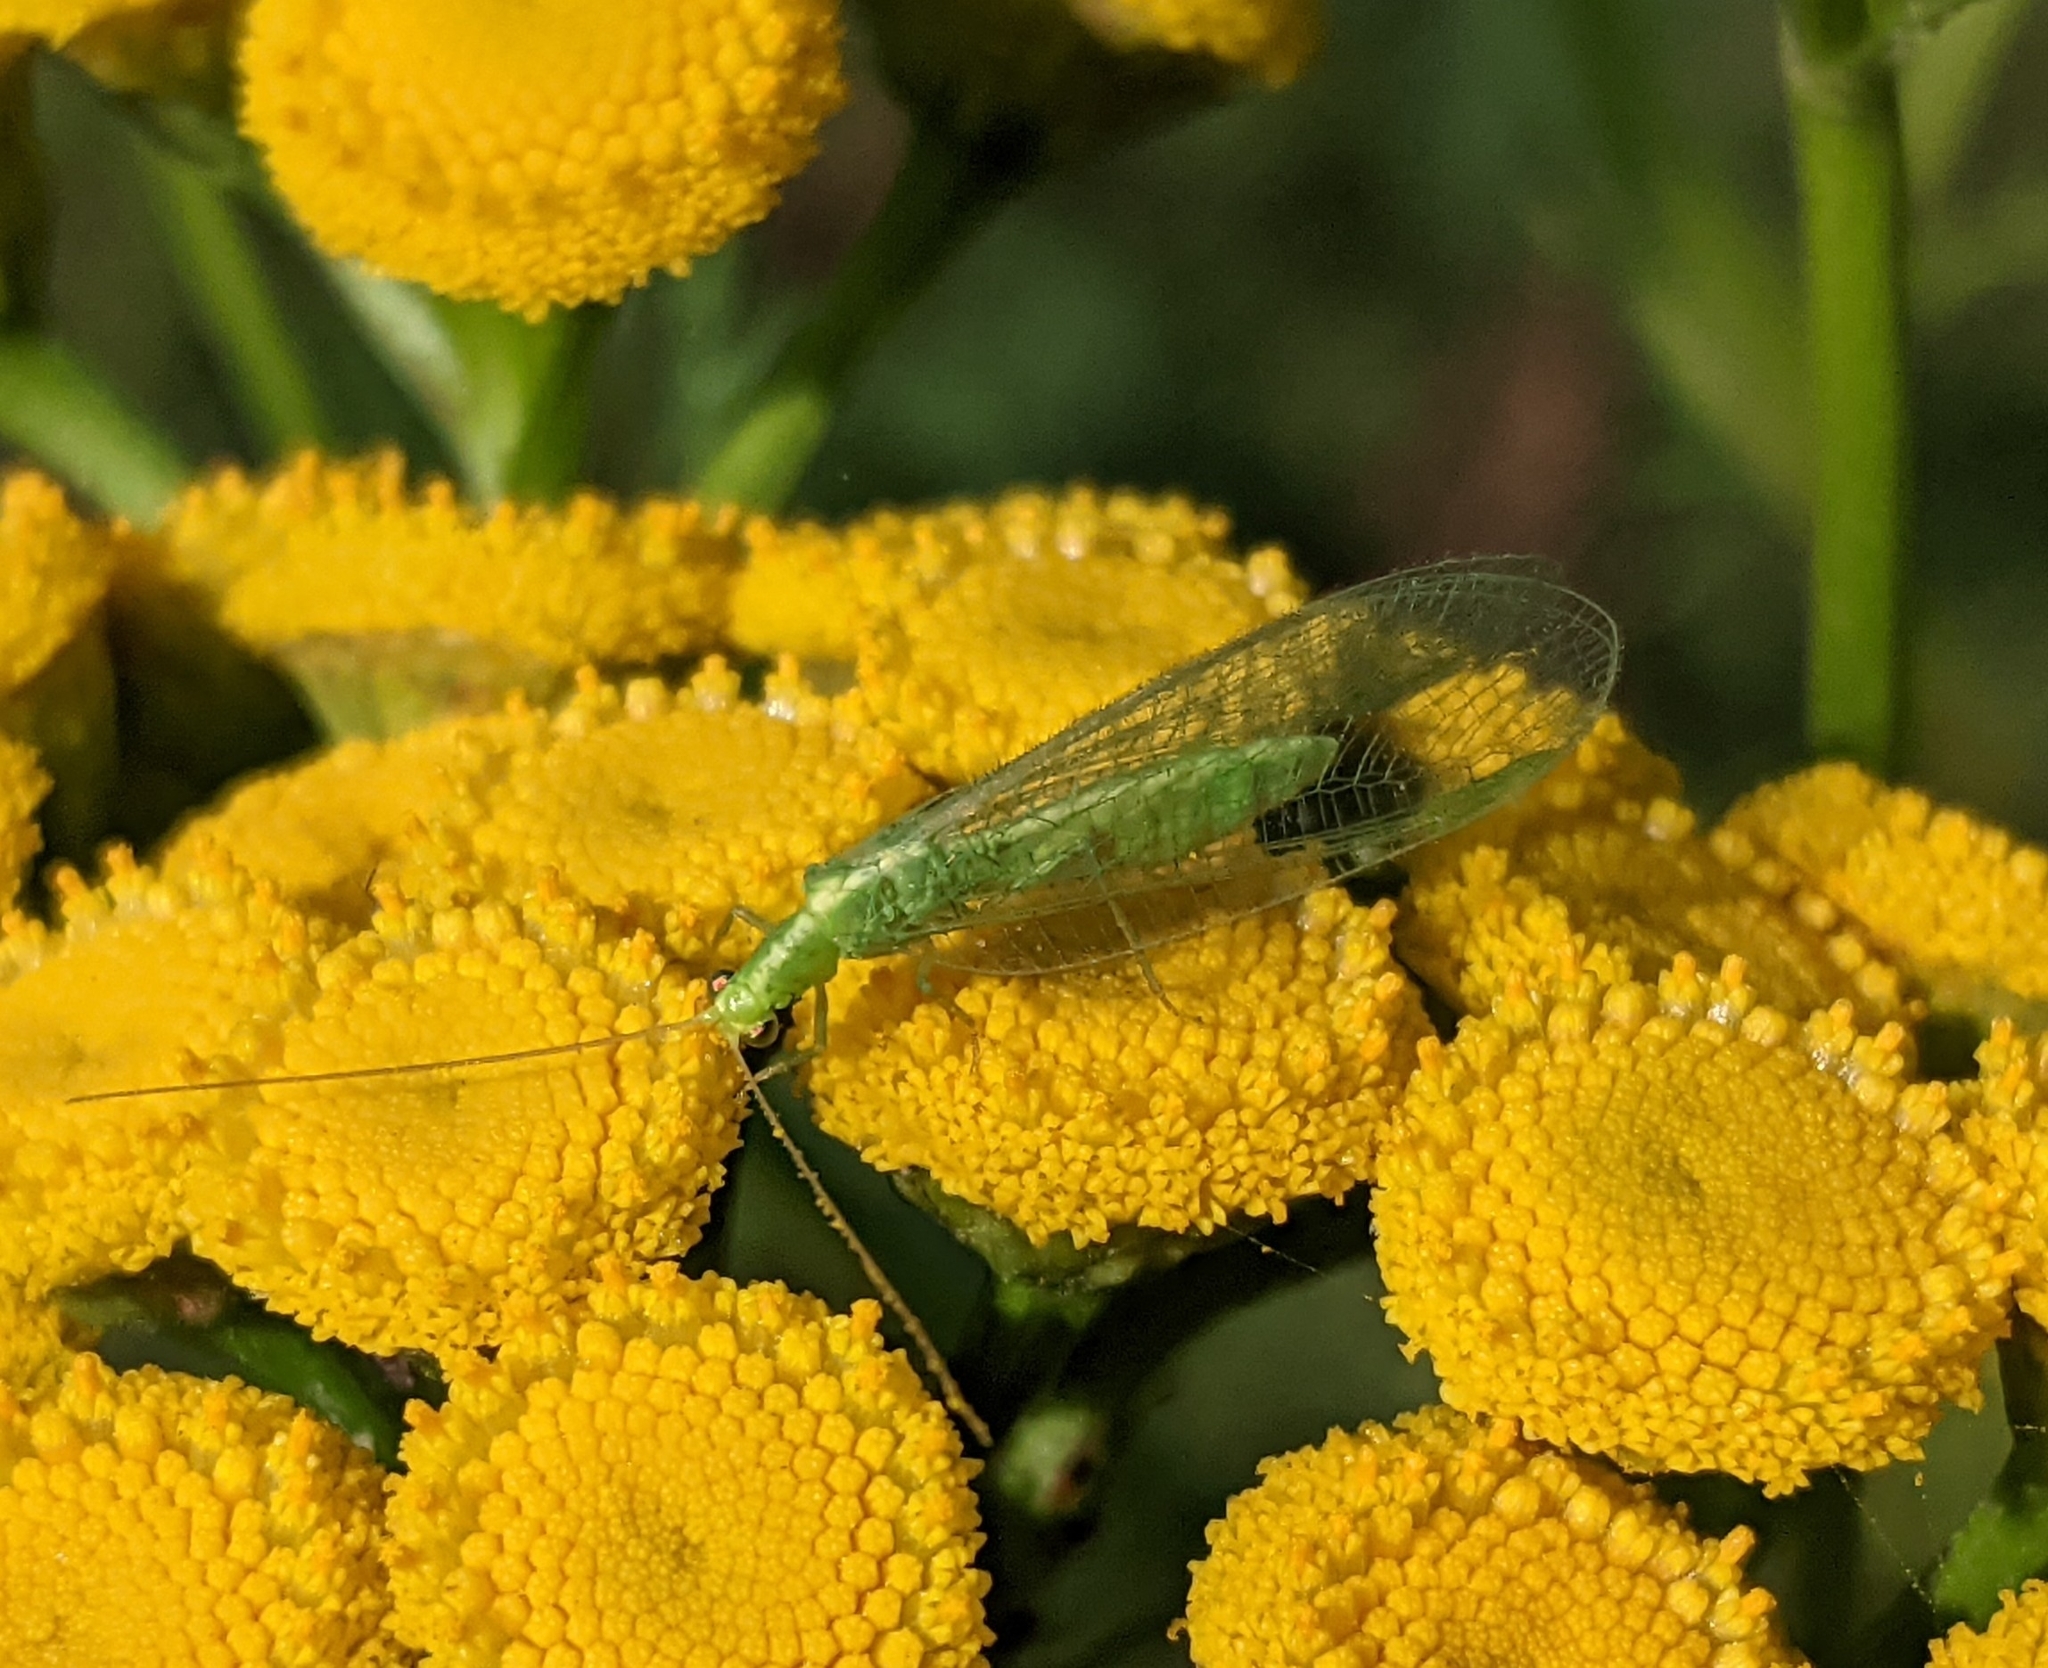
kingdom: Animalia
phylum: Arthropoda
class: Insecta
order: Neuroptera
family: Chrysopidae
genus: Chrysoperla
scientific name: Chrysoperla
